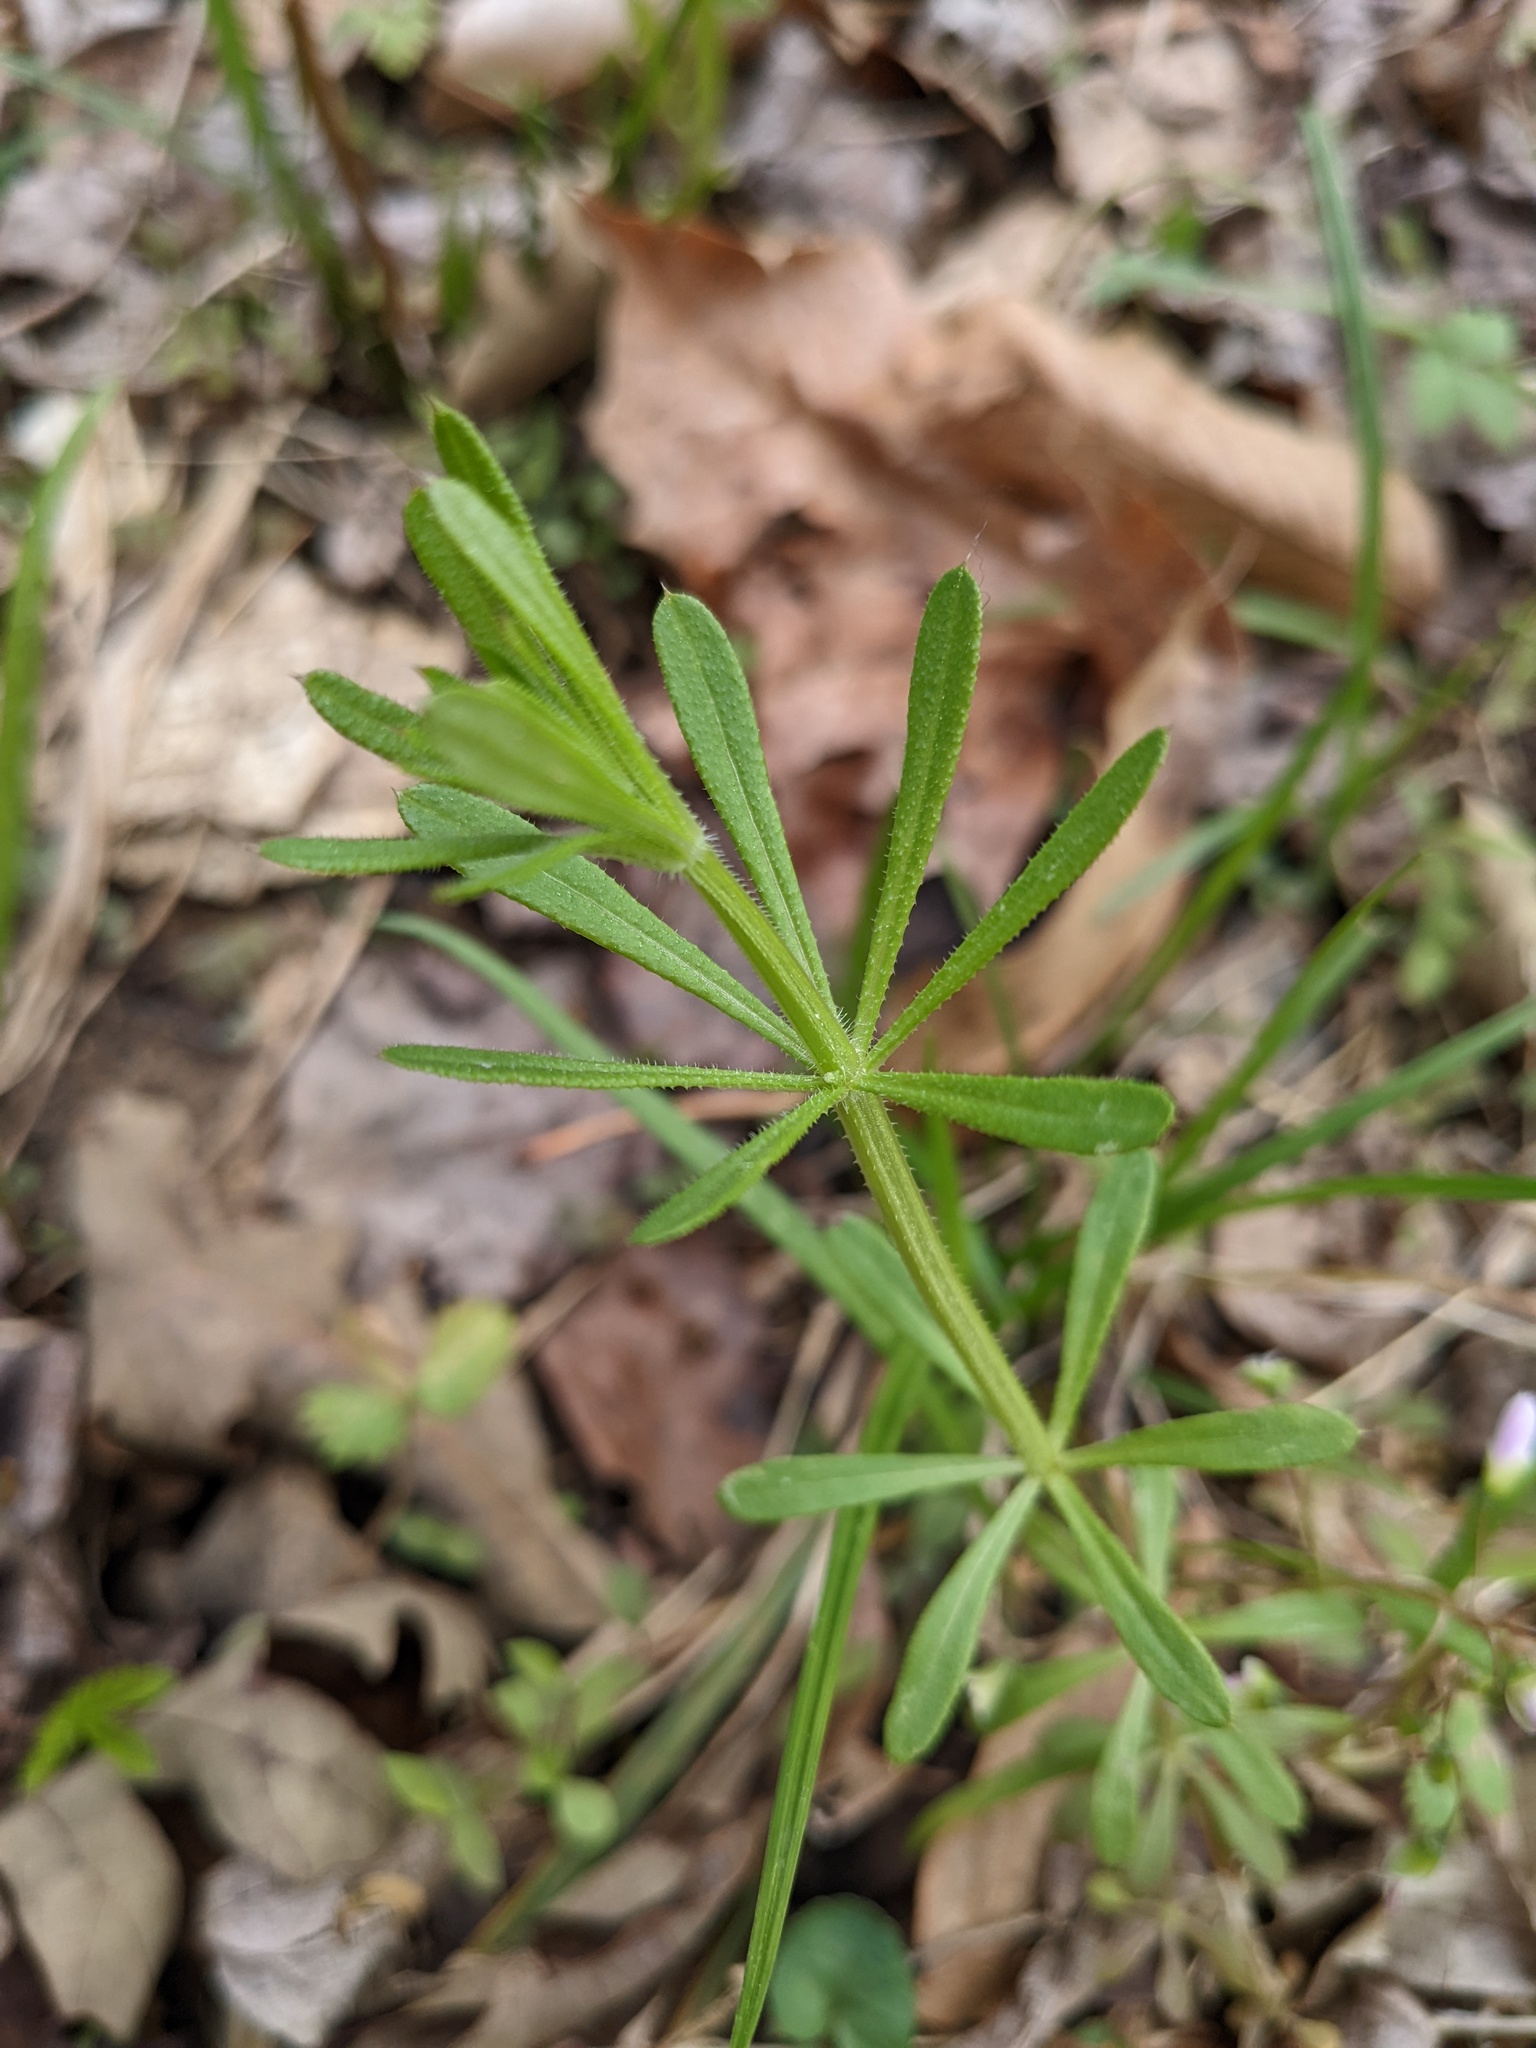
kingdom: Plantae
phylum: Tracheophyta
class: Magnoliopsida
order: Gentianales
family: Rubiaceae
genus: Galium
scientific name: Galium aparine
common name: Cleavers
